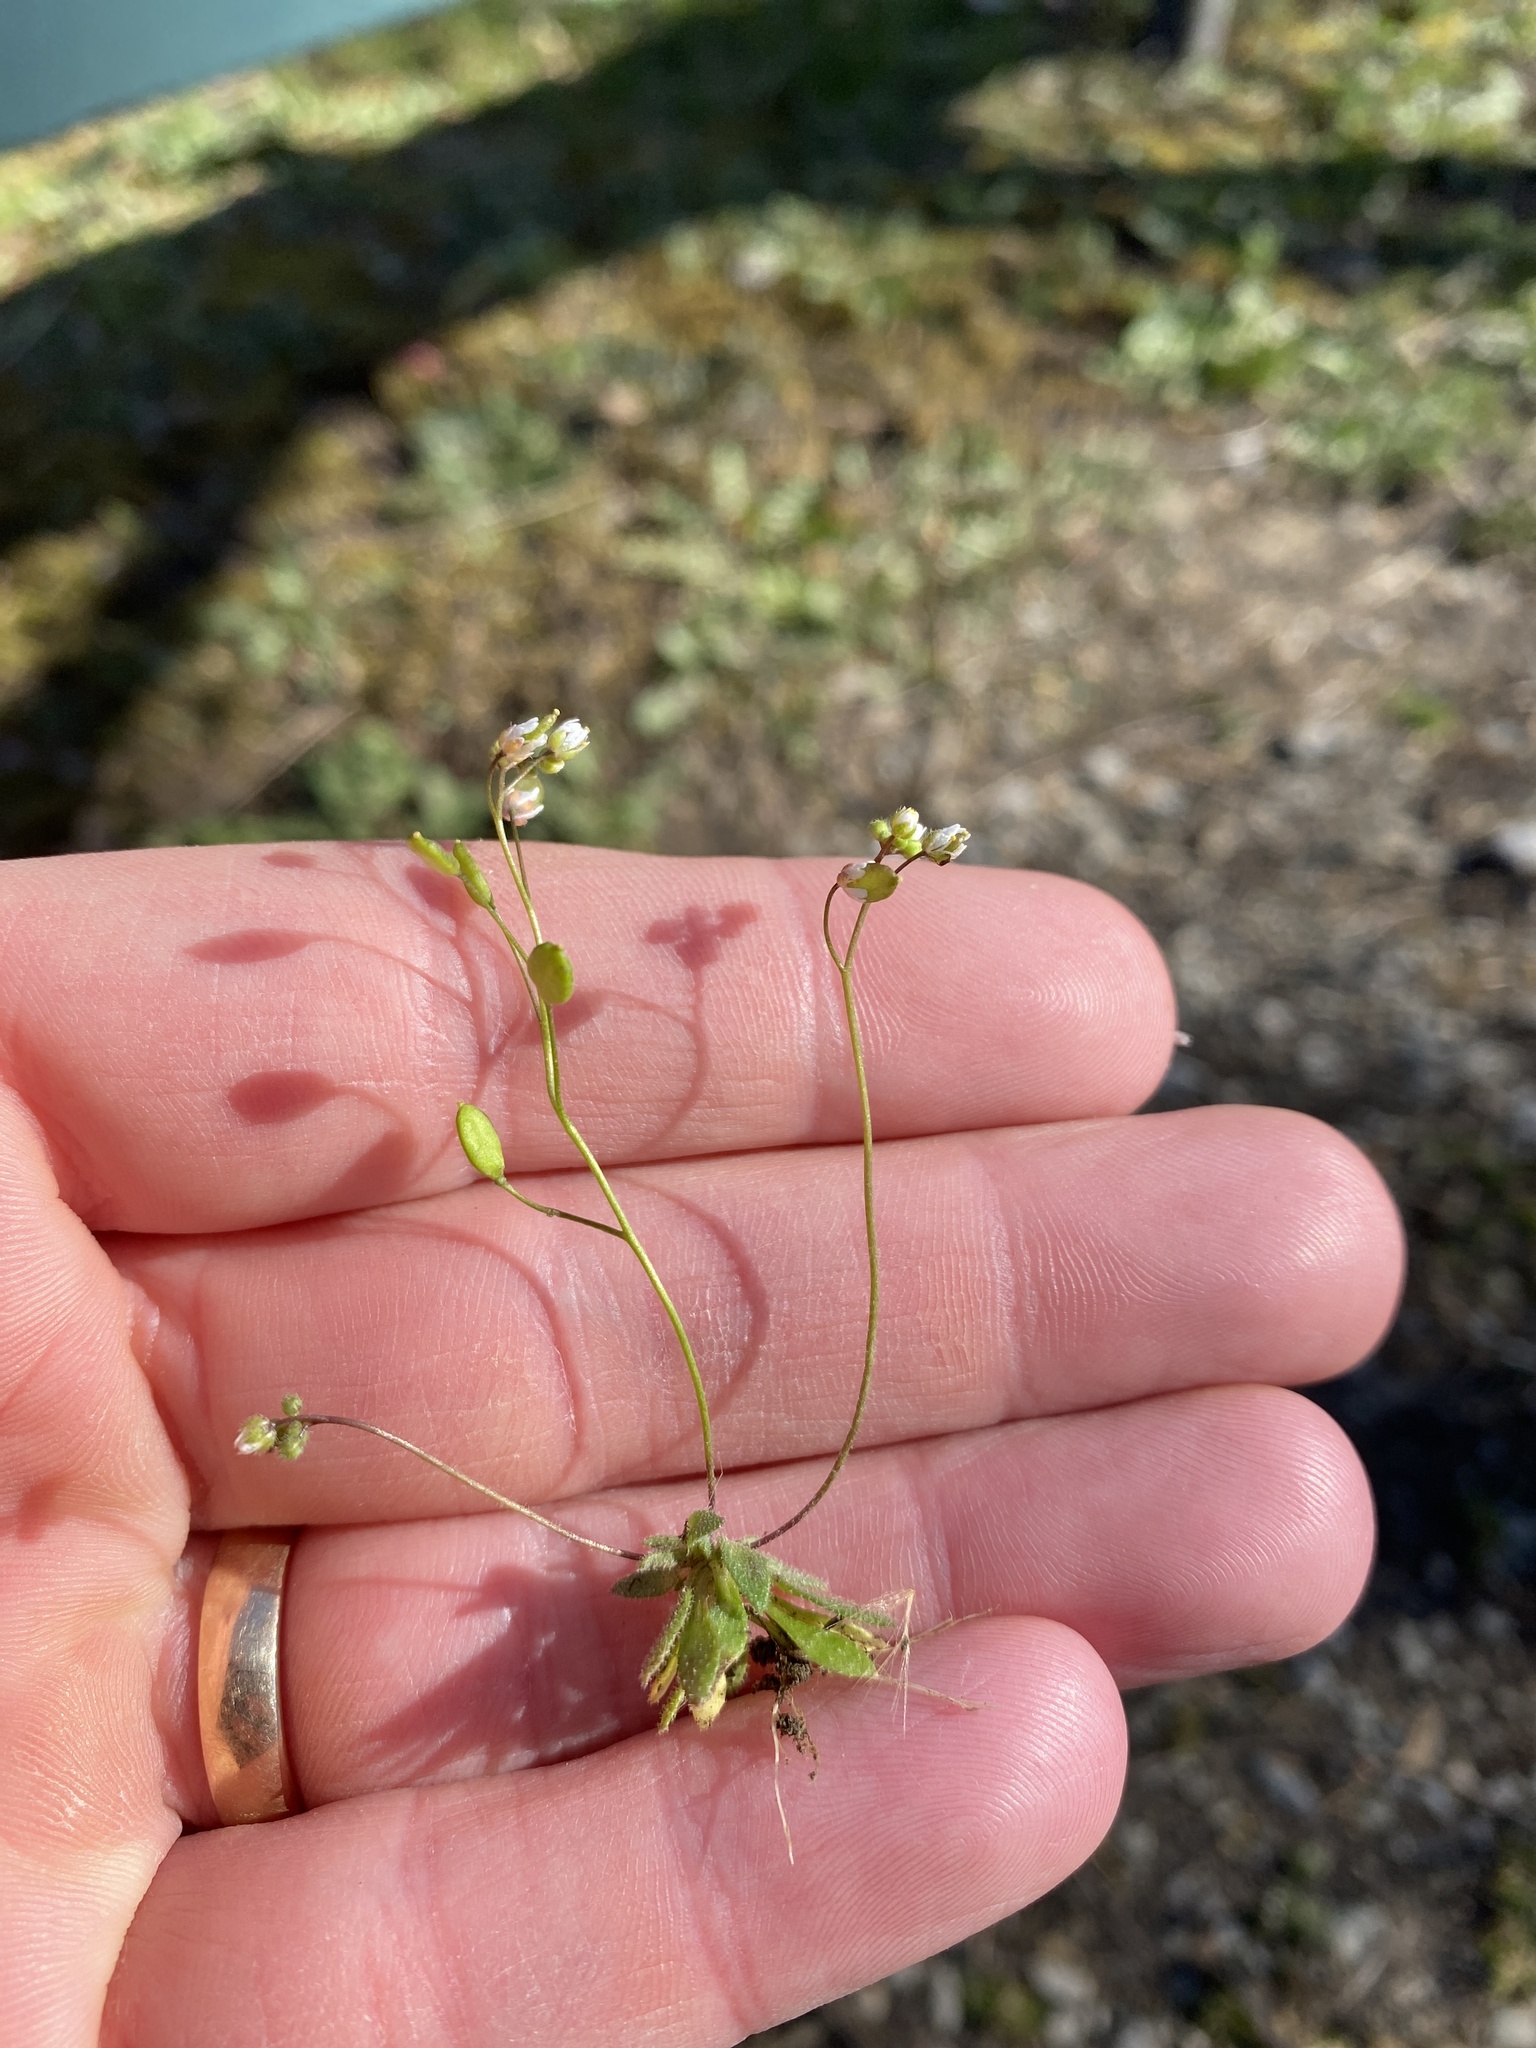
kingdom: Plantae
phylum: Tracheophyta
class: Magnoliopsida
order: Brassicales
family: Brassicaceae
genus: Draba
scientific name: Draba verna
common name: Spring draba
